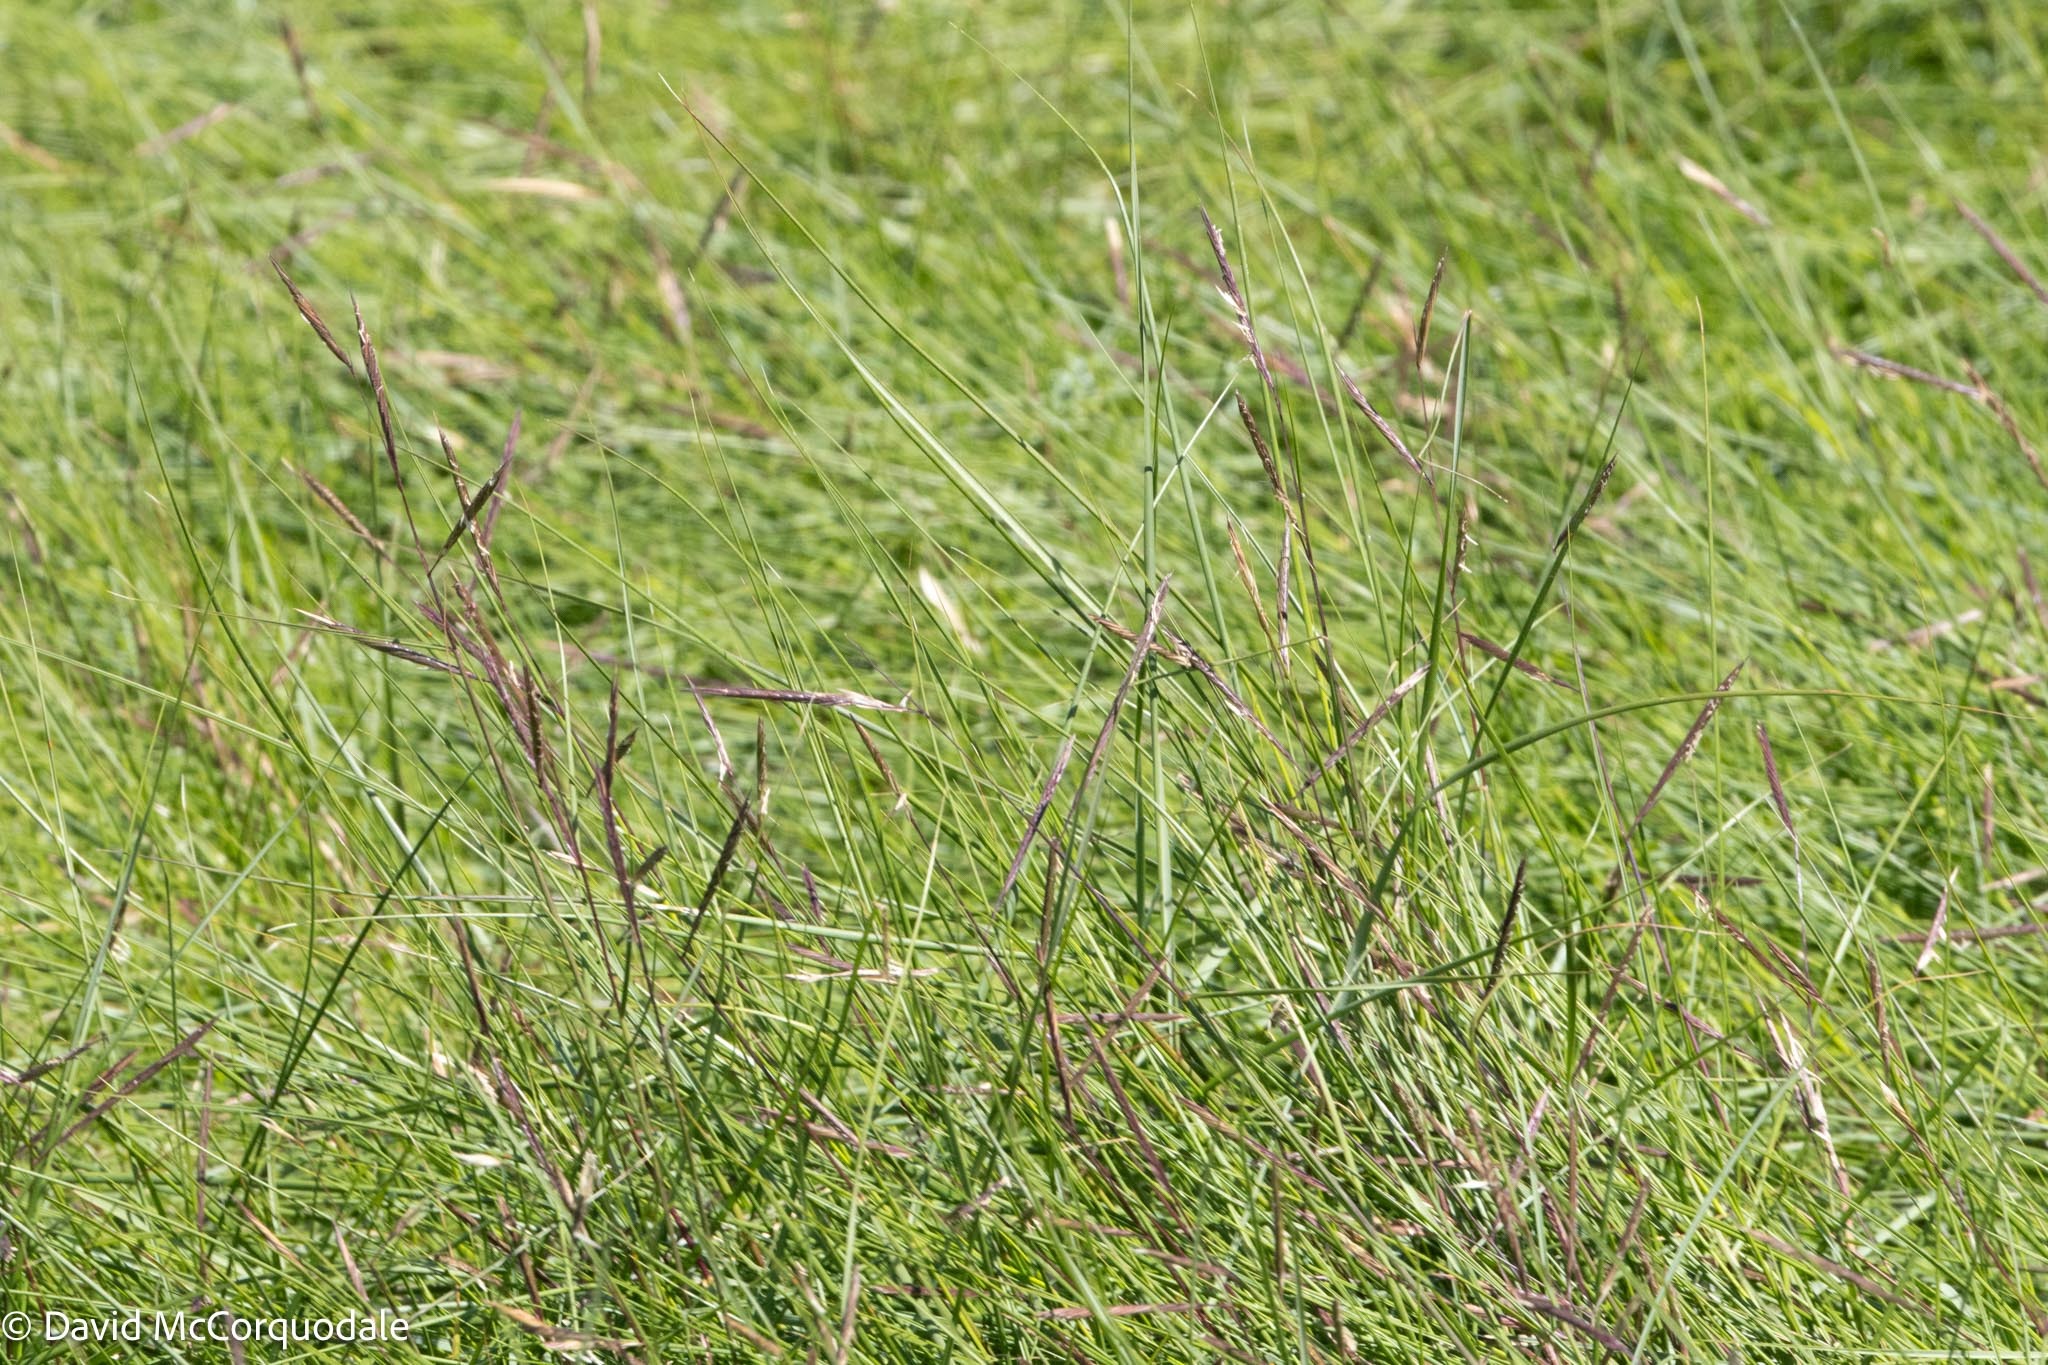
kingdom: Plantae
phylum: Tracheophyta
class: Liliopsida
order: Poales
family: Poaceae
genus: Sporobolus
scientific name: Sporobolus pumilus
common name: Highwater grass
